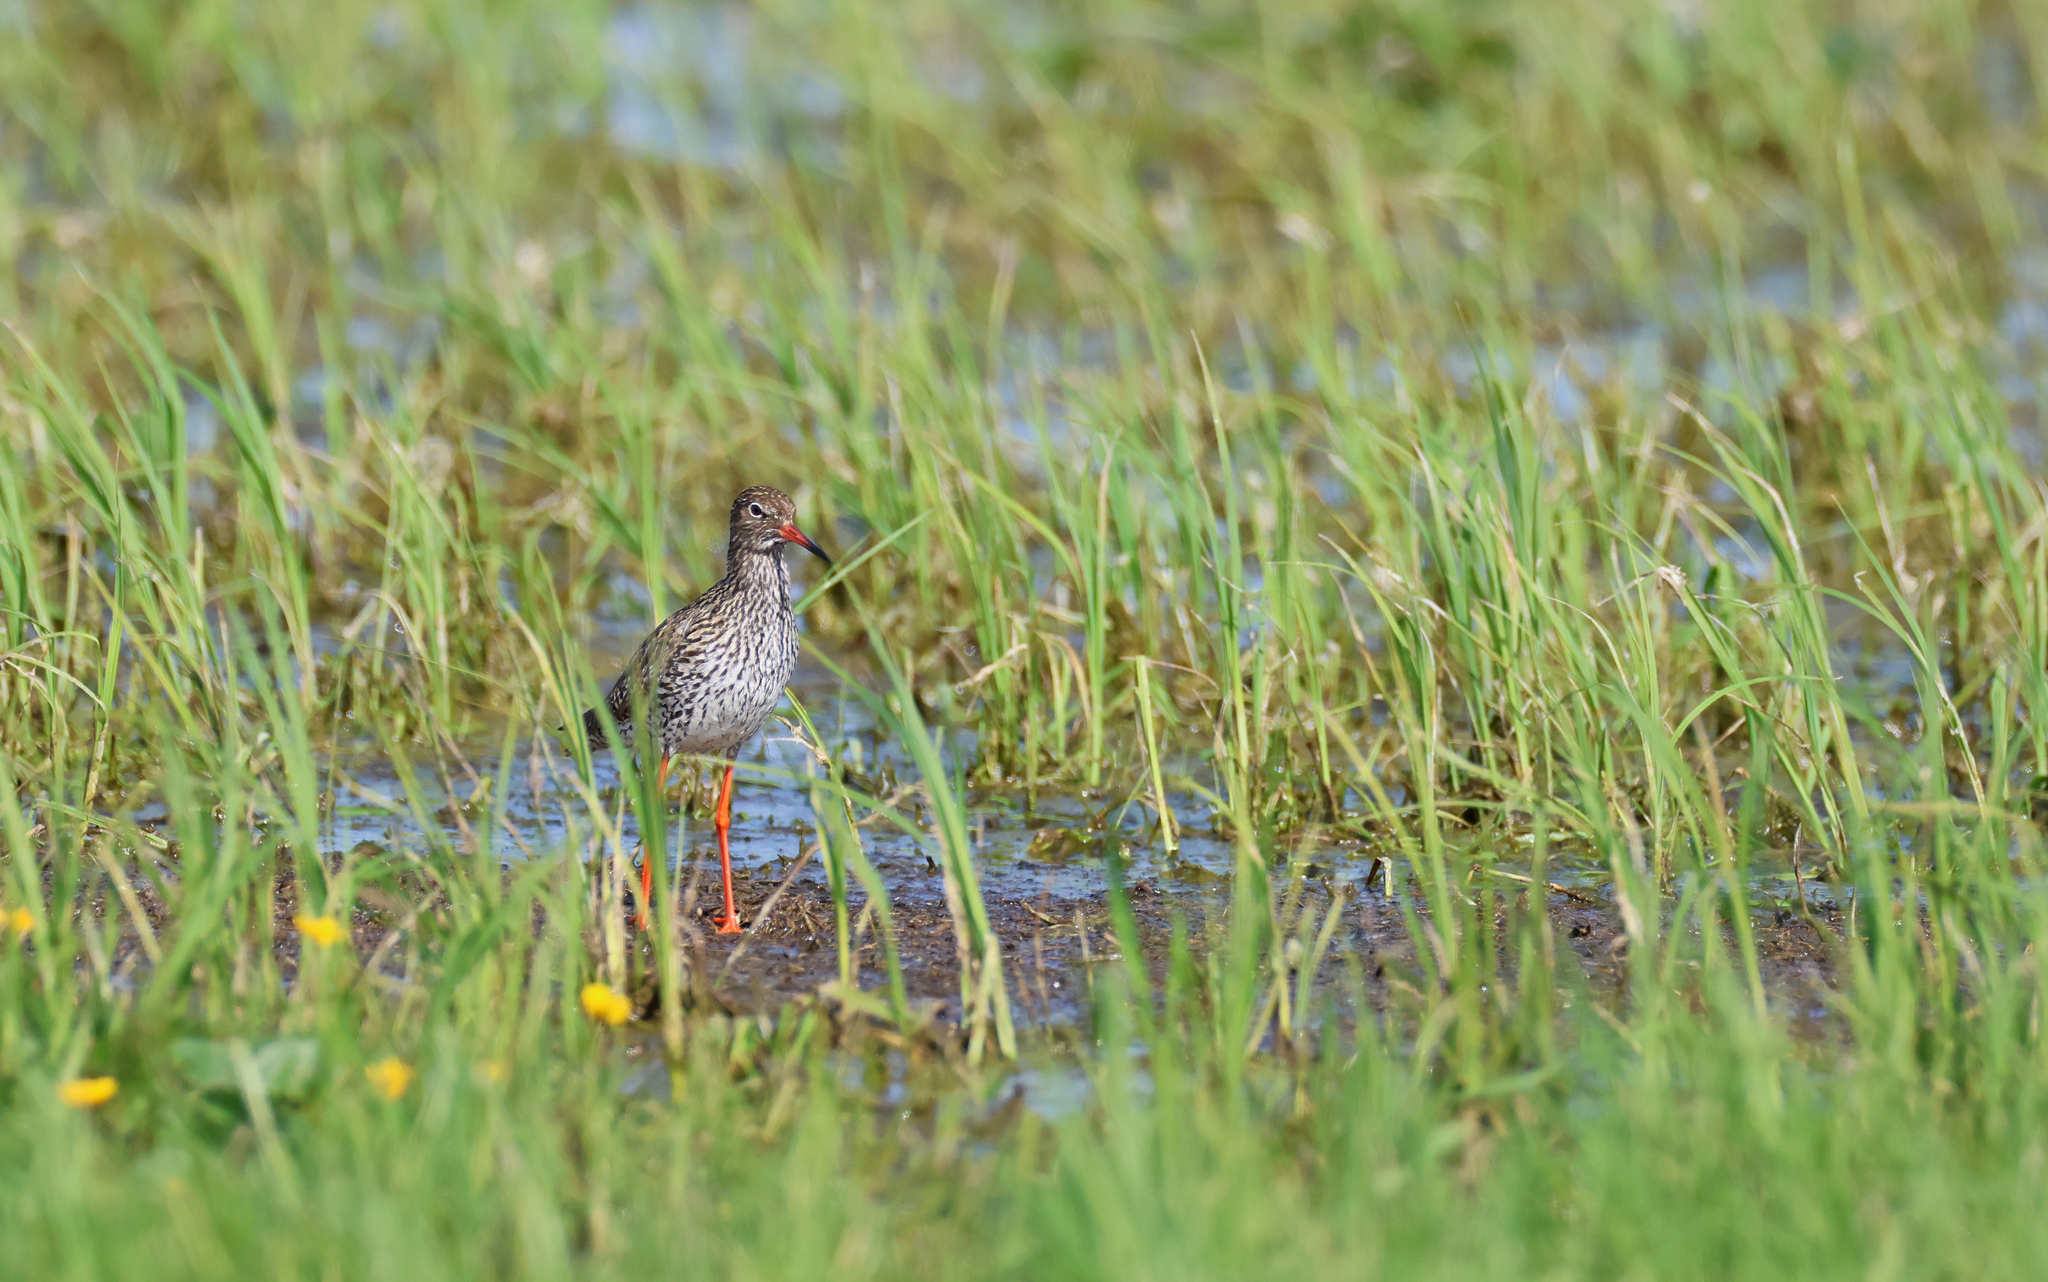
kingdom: Animalia
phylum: Chordata
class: Aves
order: Charadriiformes
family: Scolopacidae
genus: Tringa
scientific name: Tringa totanus
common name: Common redshank
